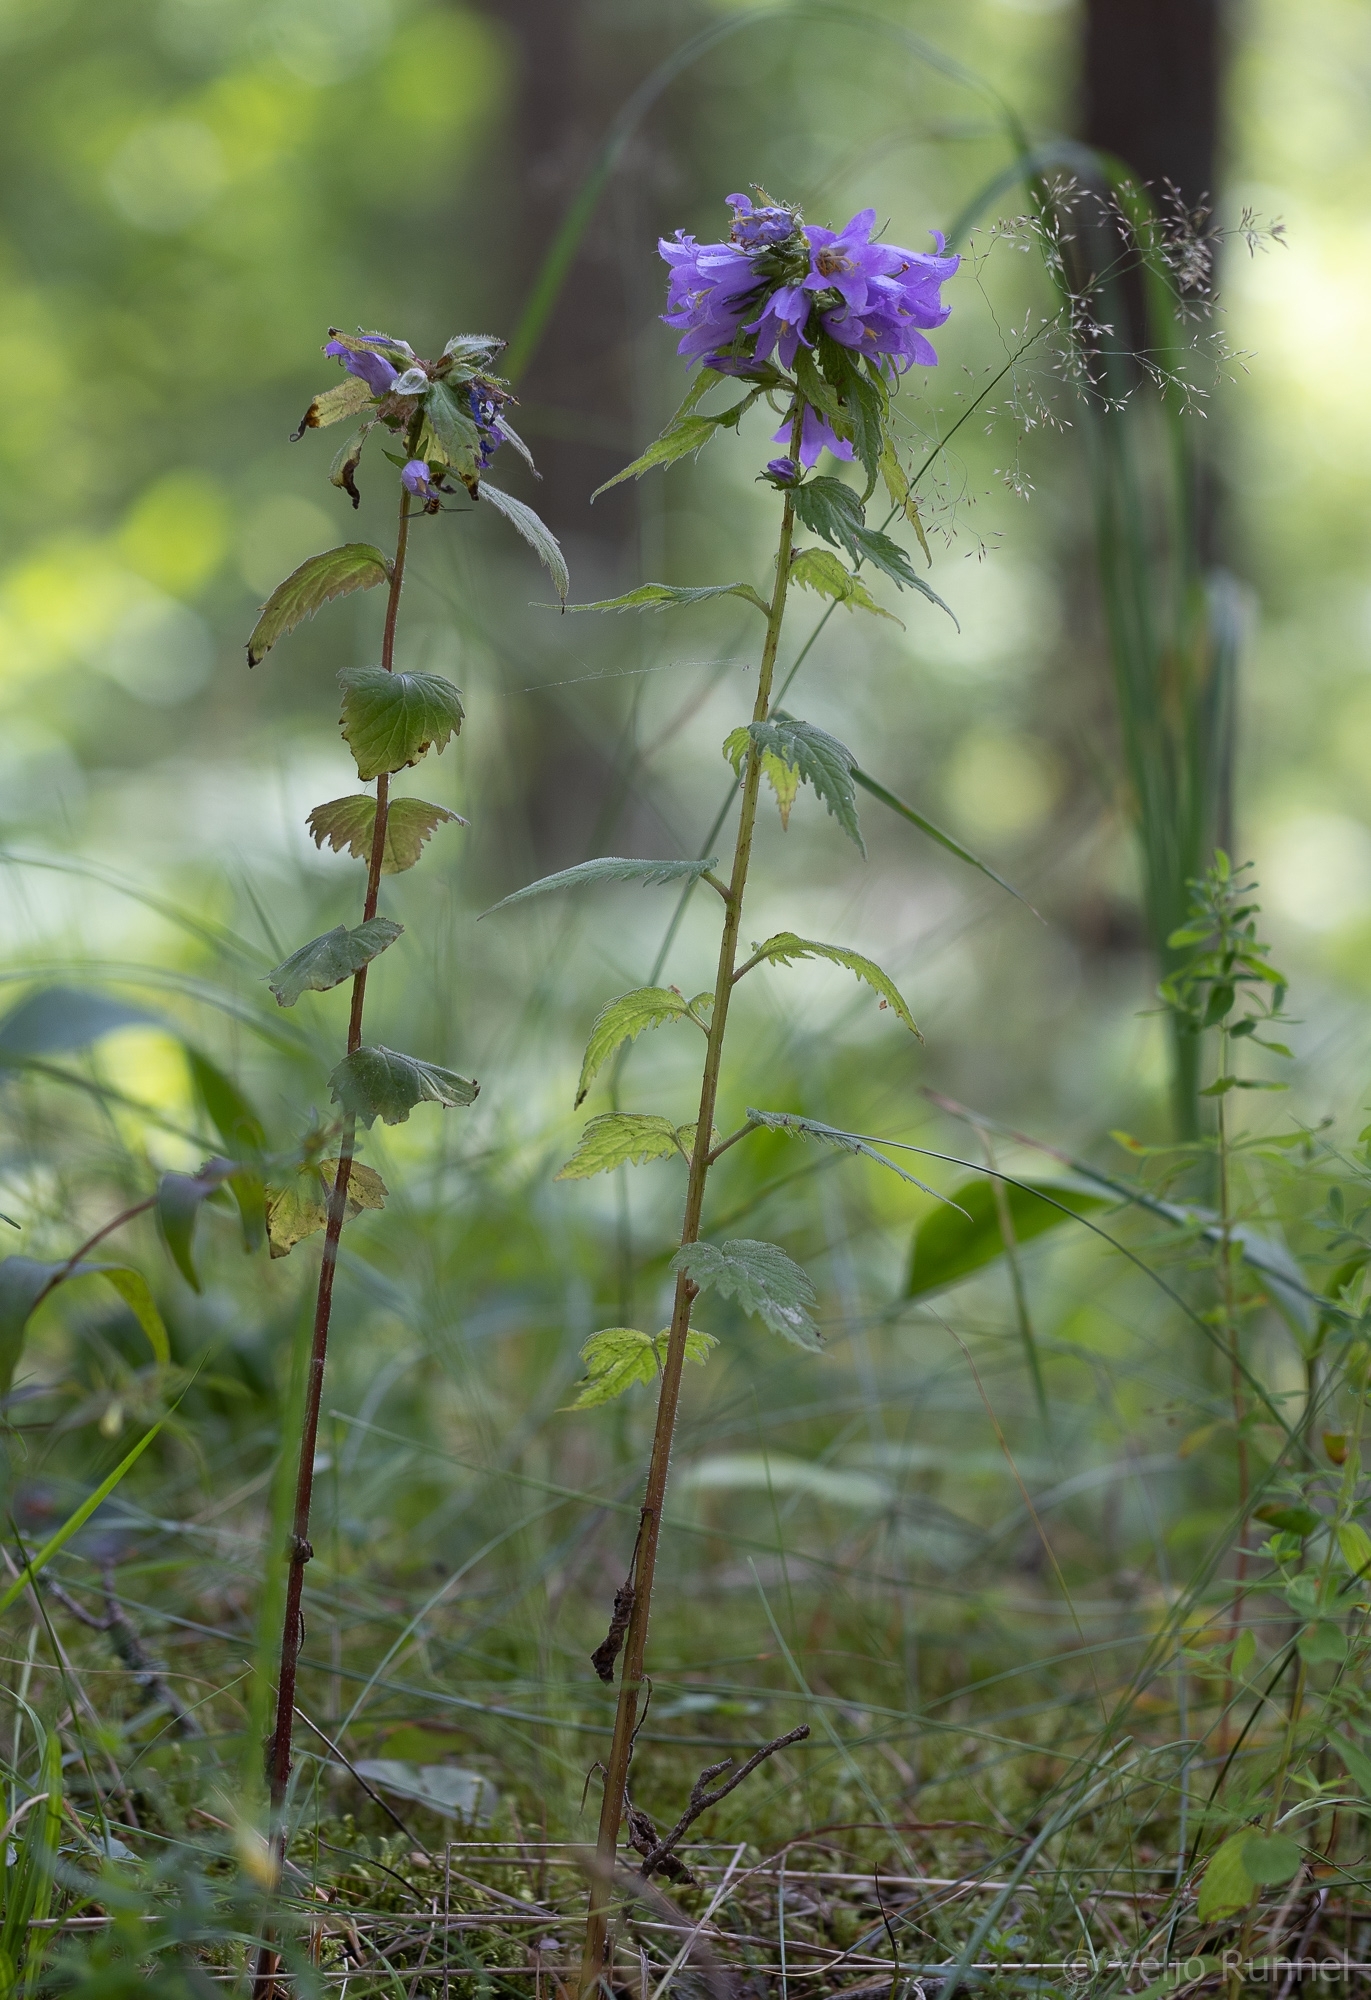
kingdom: Plantae
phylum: Tracheophyta
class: Magnoliopsida
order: Asterales
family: Campanulaceae
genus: Campanula
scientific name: Campanula trachelium
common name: Nettle-leaved bellflower
